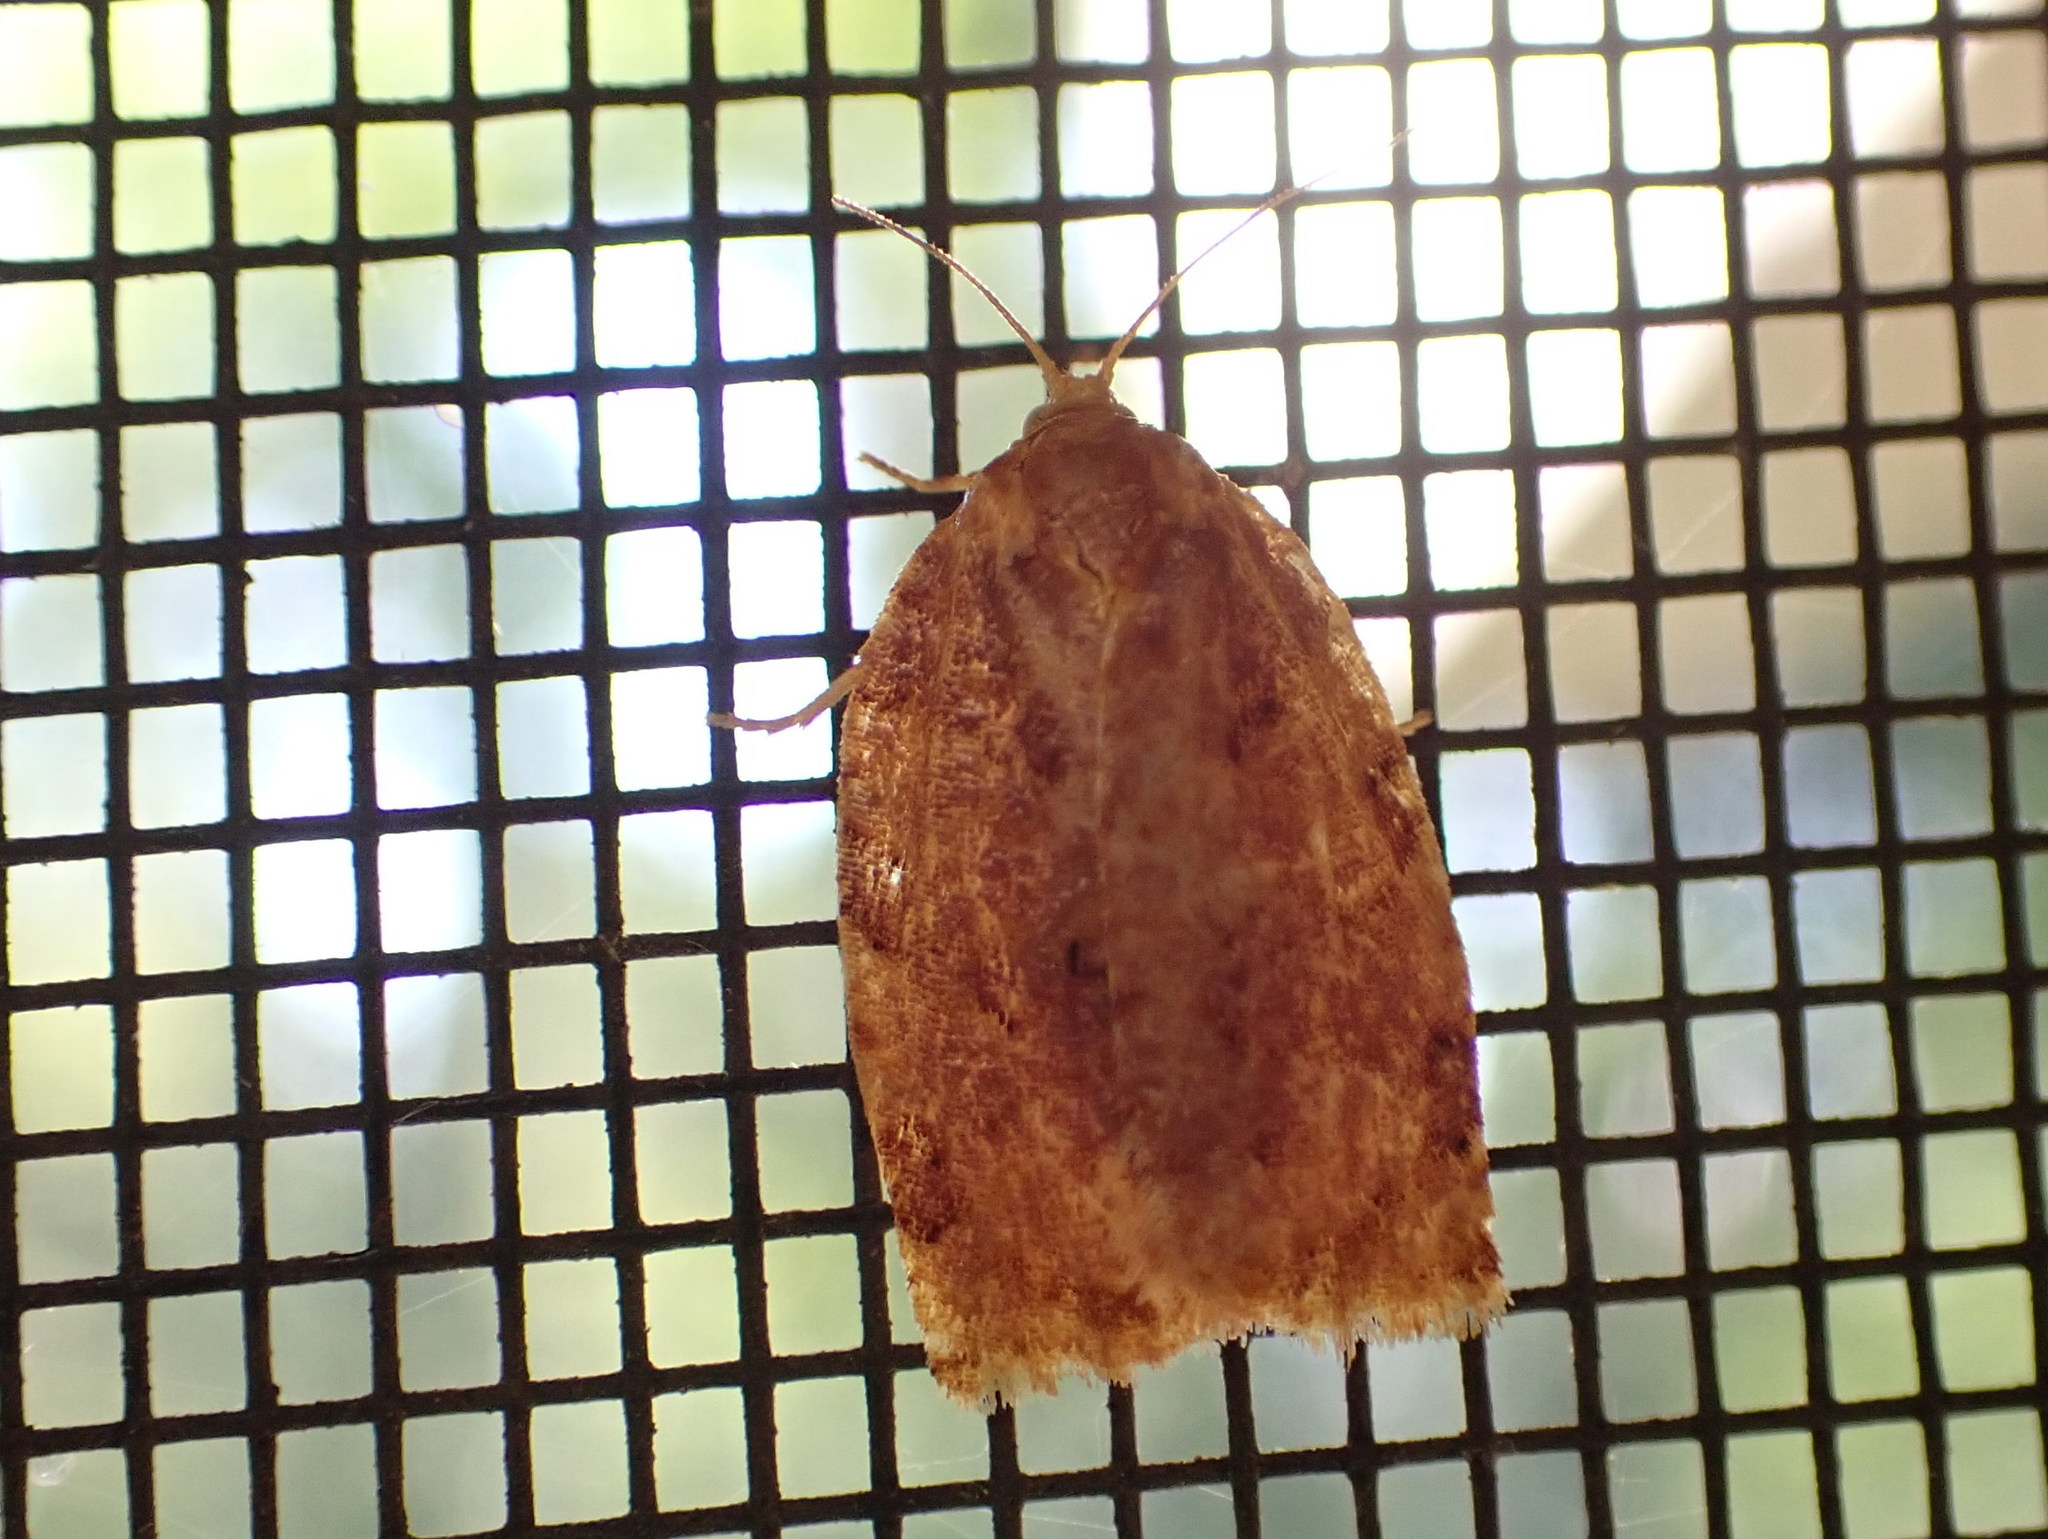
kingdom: Animalia
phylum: Arthropoda
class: Insecta
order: Lepidoptera
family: Tortricidae
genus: Archips
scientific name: Archips cerasivorana
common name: Uglynest caterpillar
